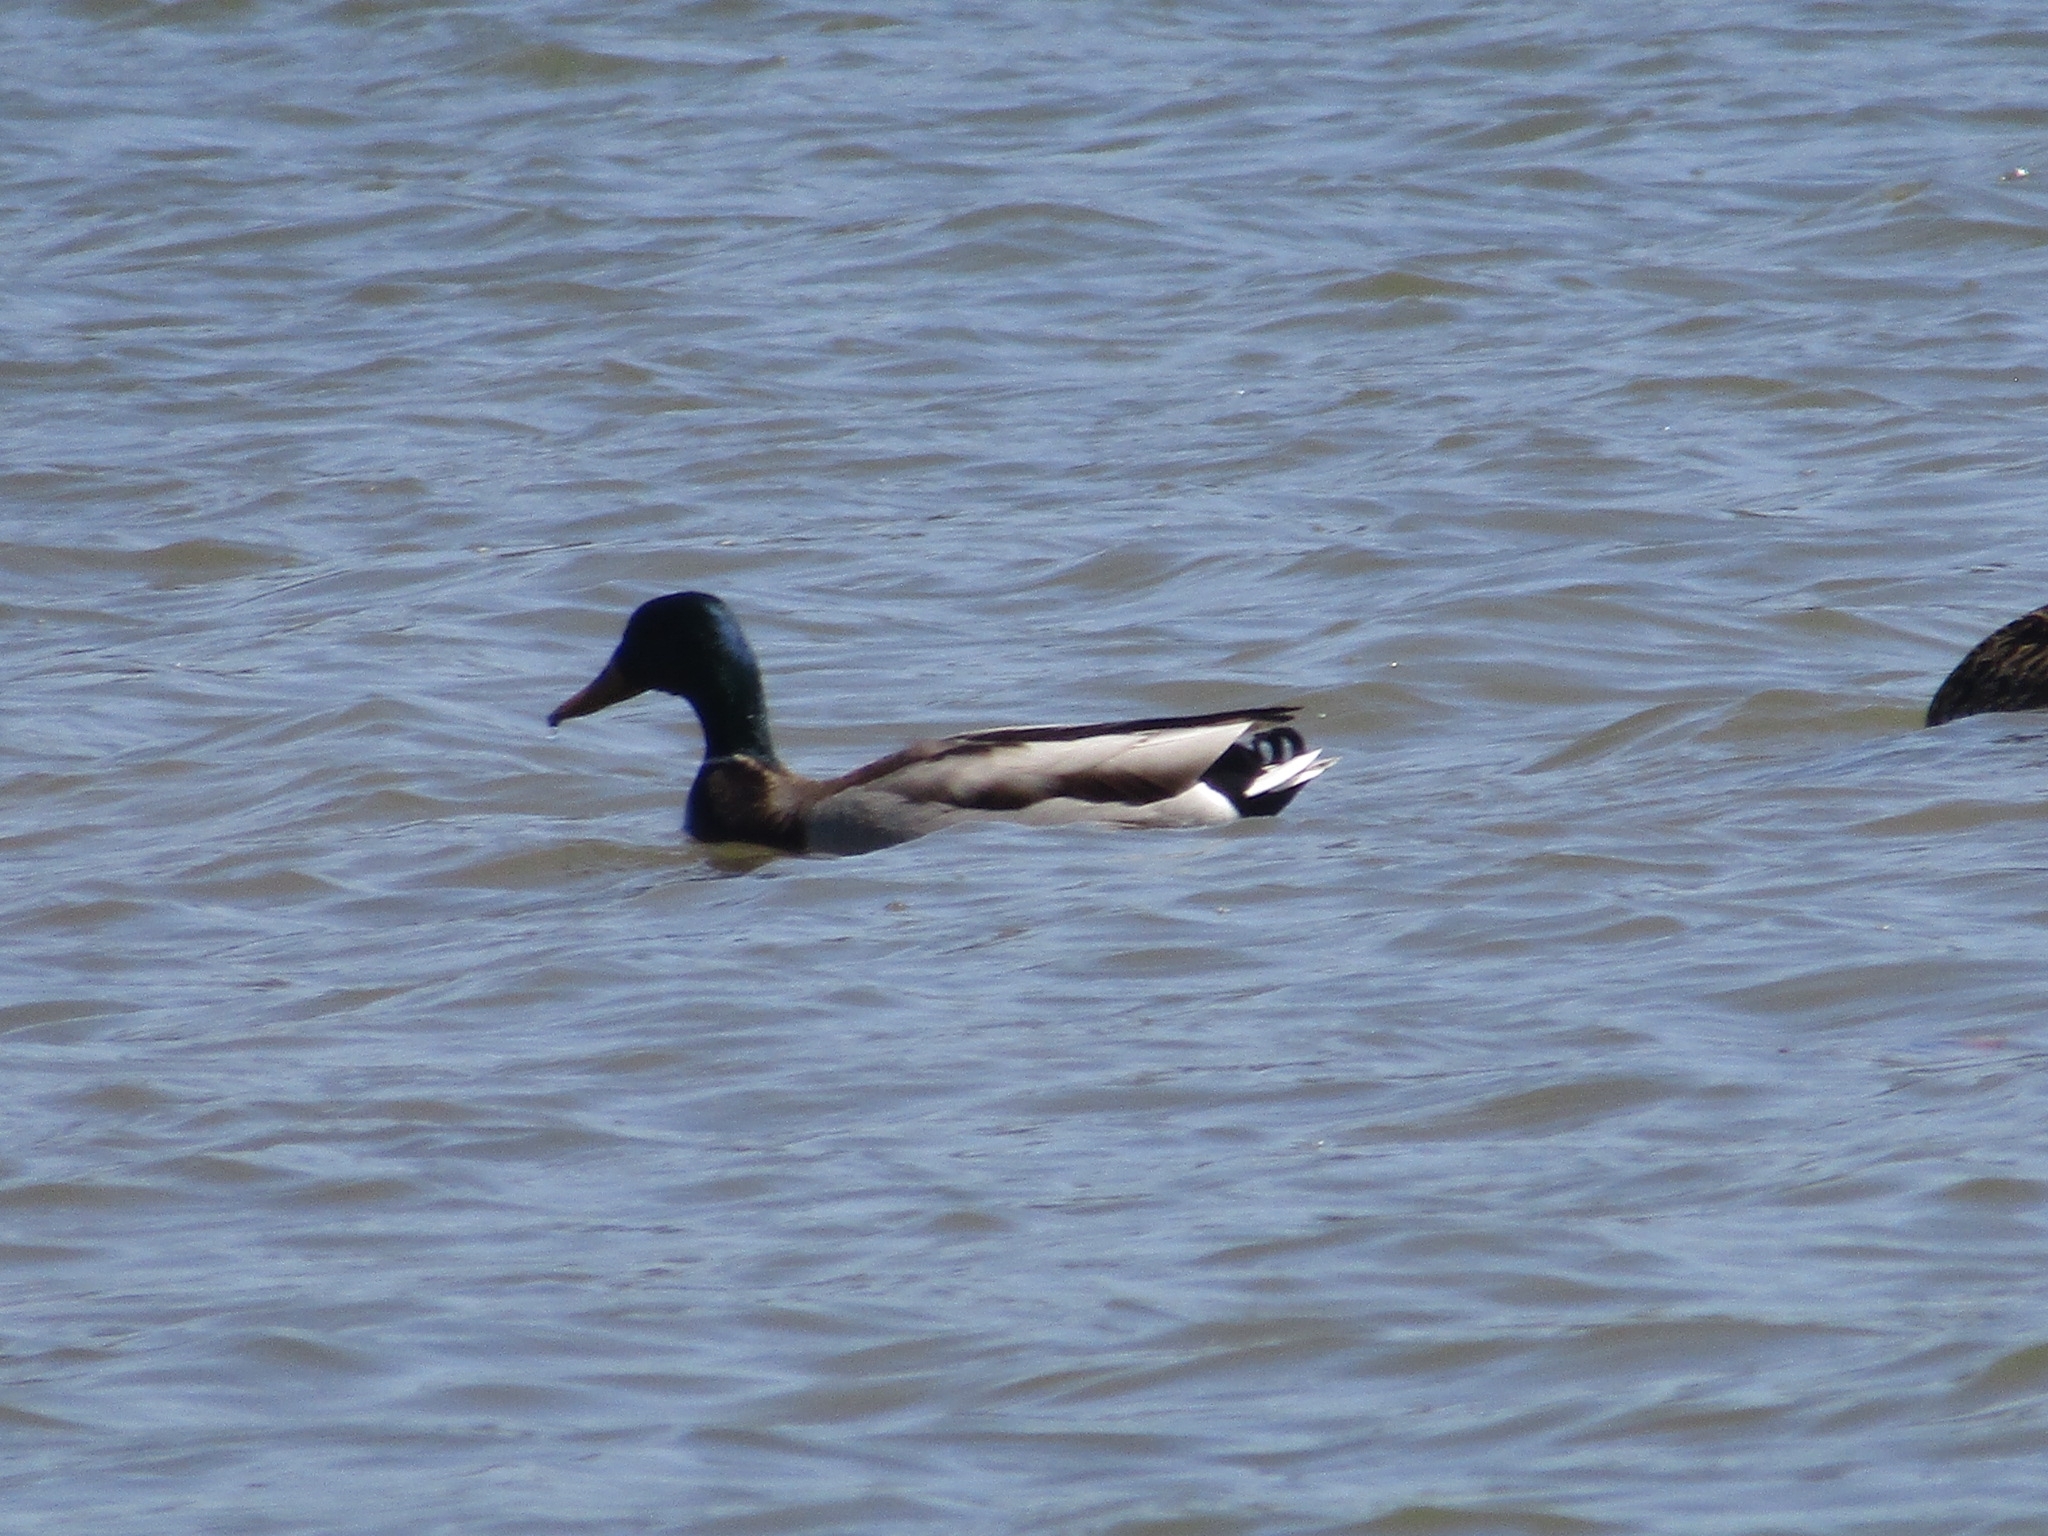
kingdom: Animalia
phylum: Chordata
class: Aves
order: Anseriformes
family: Anatidae
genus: Anas
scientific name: Anas platyrhynchos
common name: Mallard
